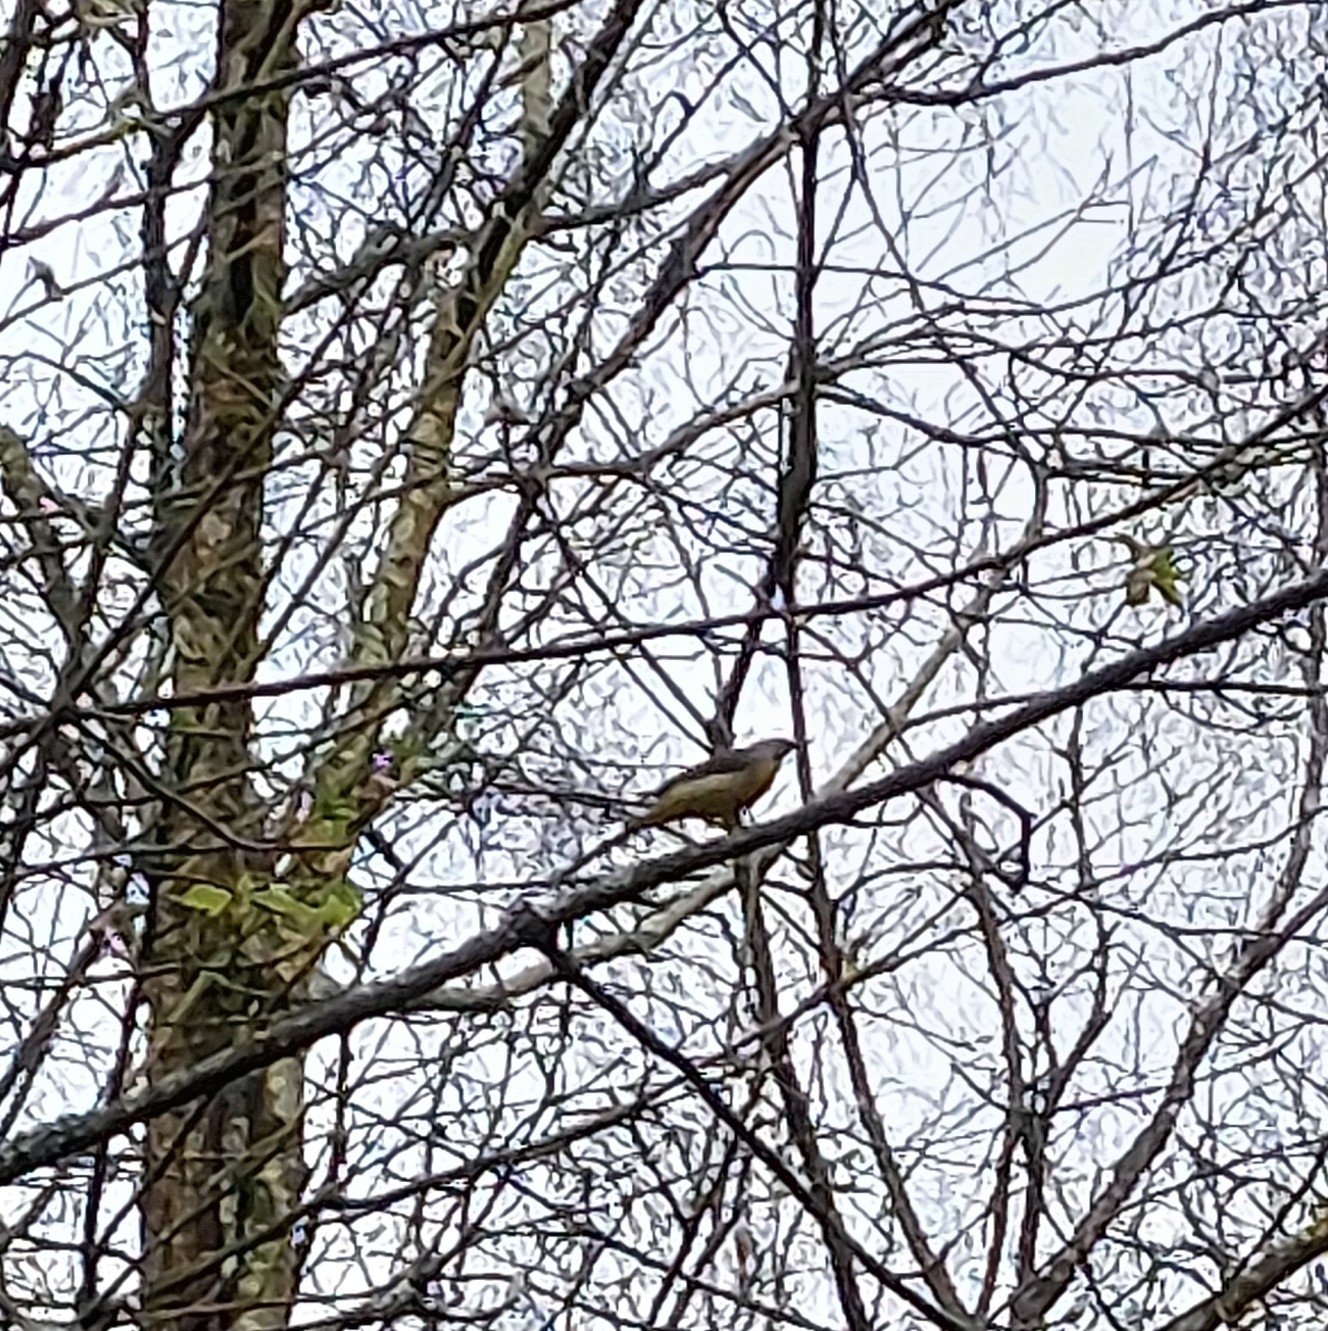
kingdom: Animalia
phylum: Chordata
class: Aves
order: Passeriformes
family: Motacillidae
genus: Motacilla
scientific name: Motacilla cinerea
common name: Grey wagtail
